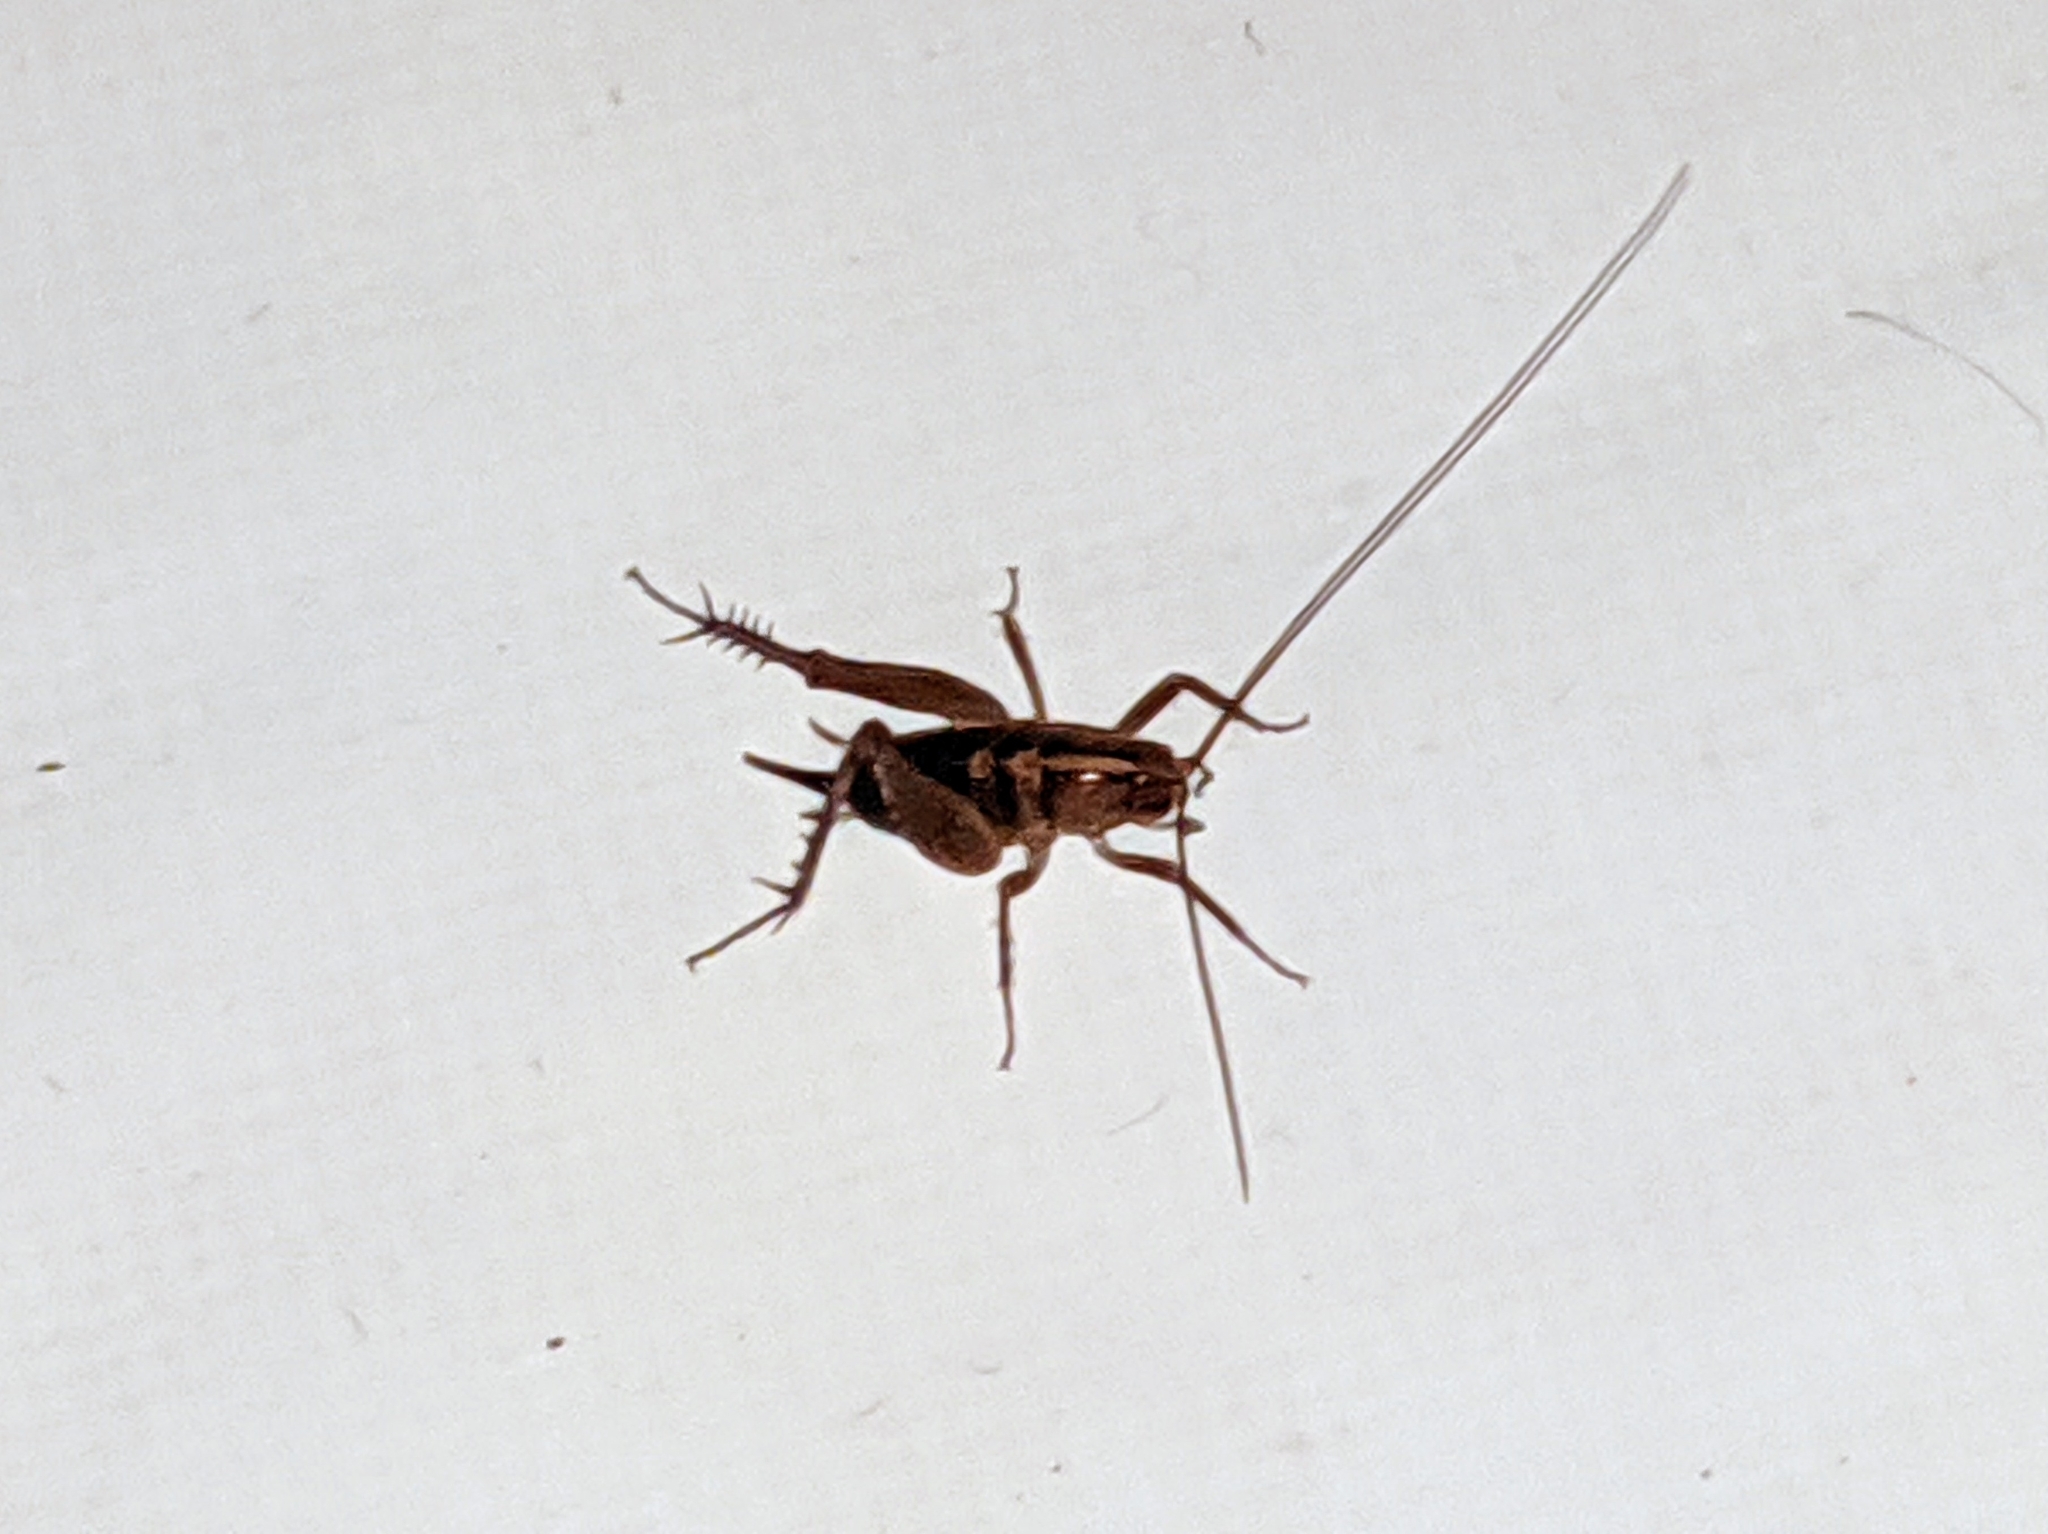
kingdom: Animalia
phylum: Arthropoda
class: Insecta
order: Orthoptera
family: Rhaphidophoridae
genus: Pristoceuthophilus
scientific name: Pristoceuthophilus
